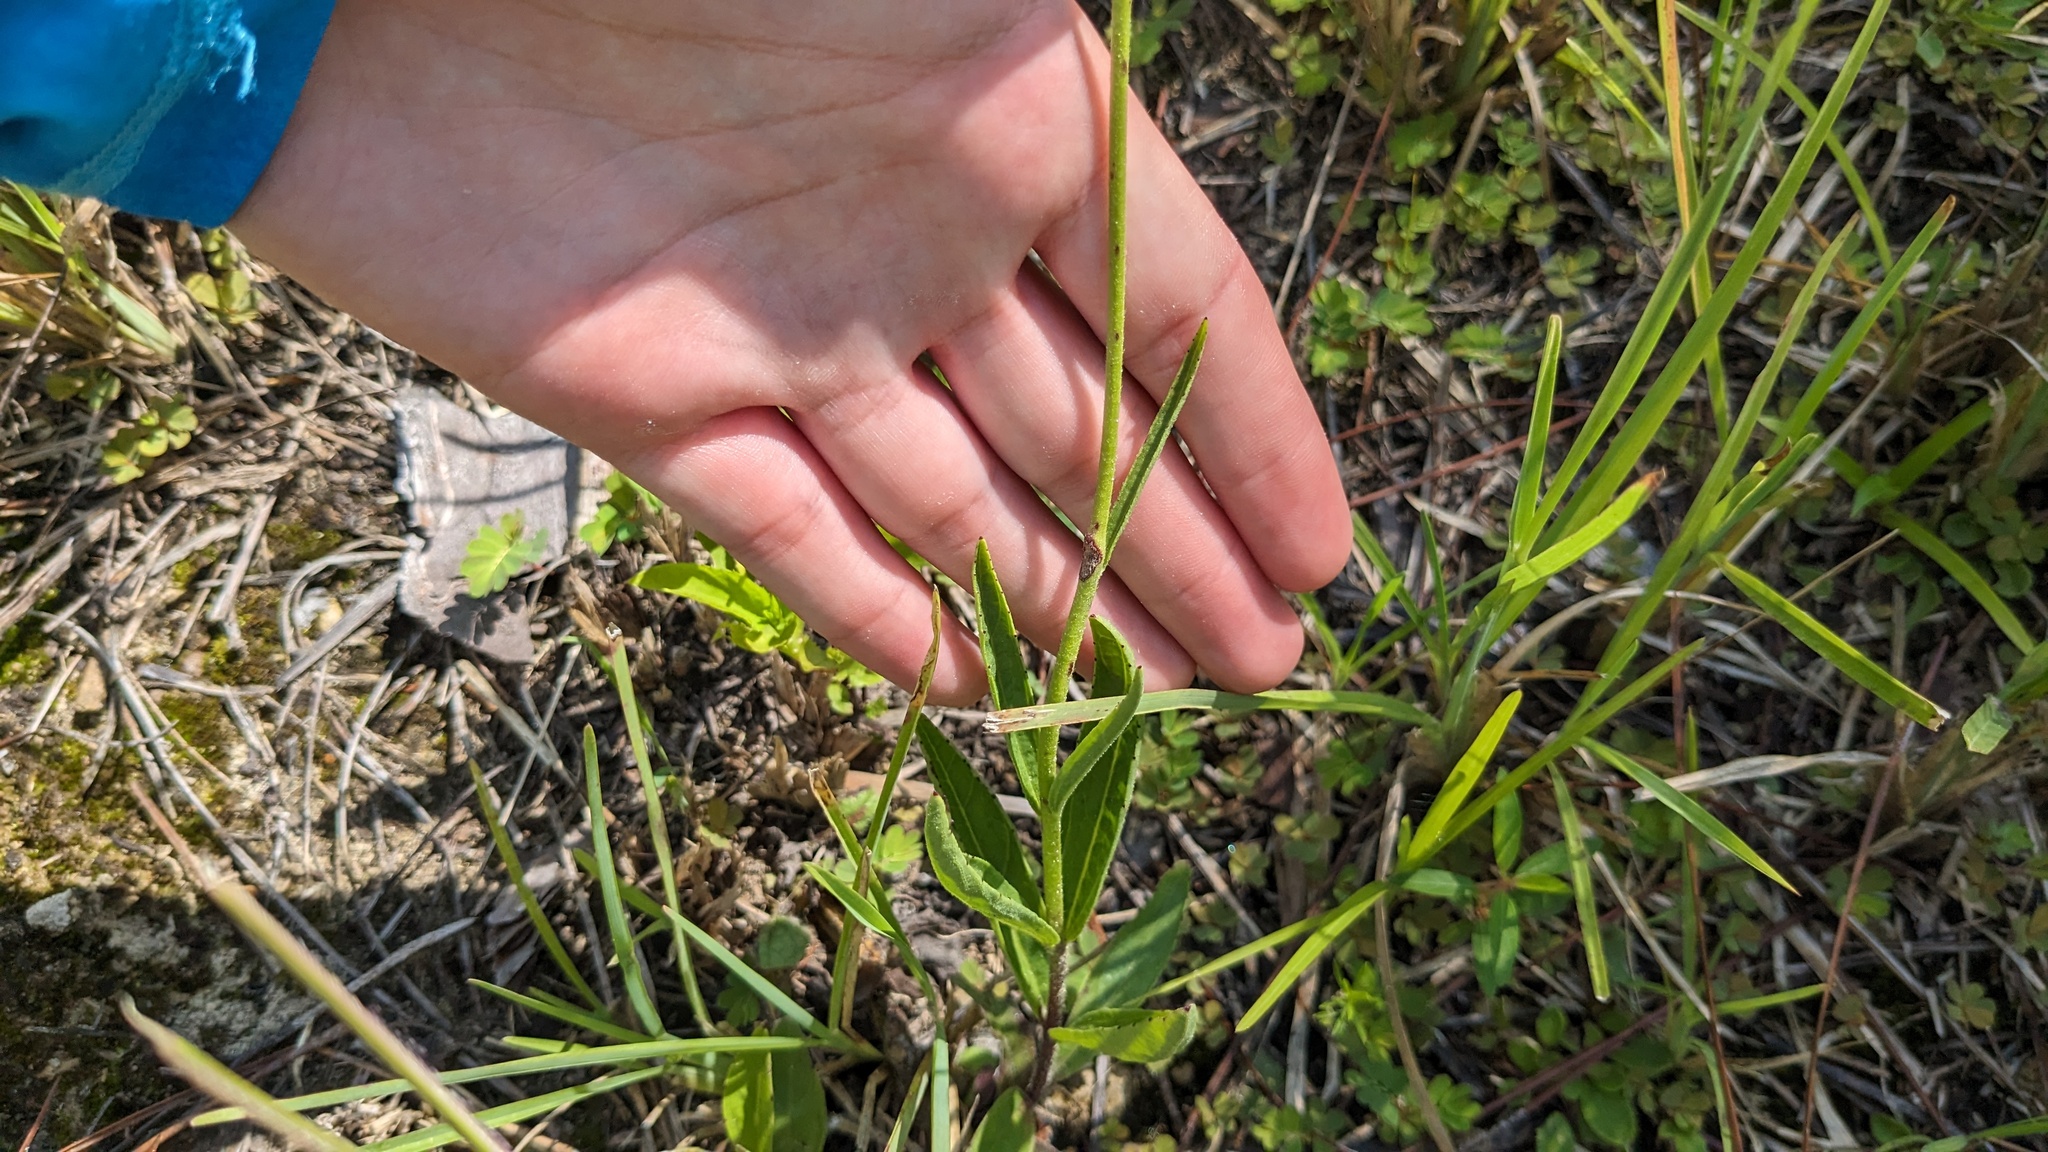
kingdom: Plantae
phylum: Tracheophyta
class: Magnoliopsida
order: Lamiales
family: Orobanchaceae
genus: Buchnera
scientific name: Buchnera floridana
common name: Florida bluehearts
